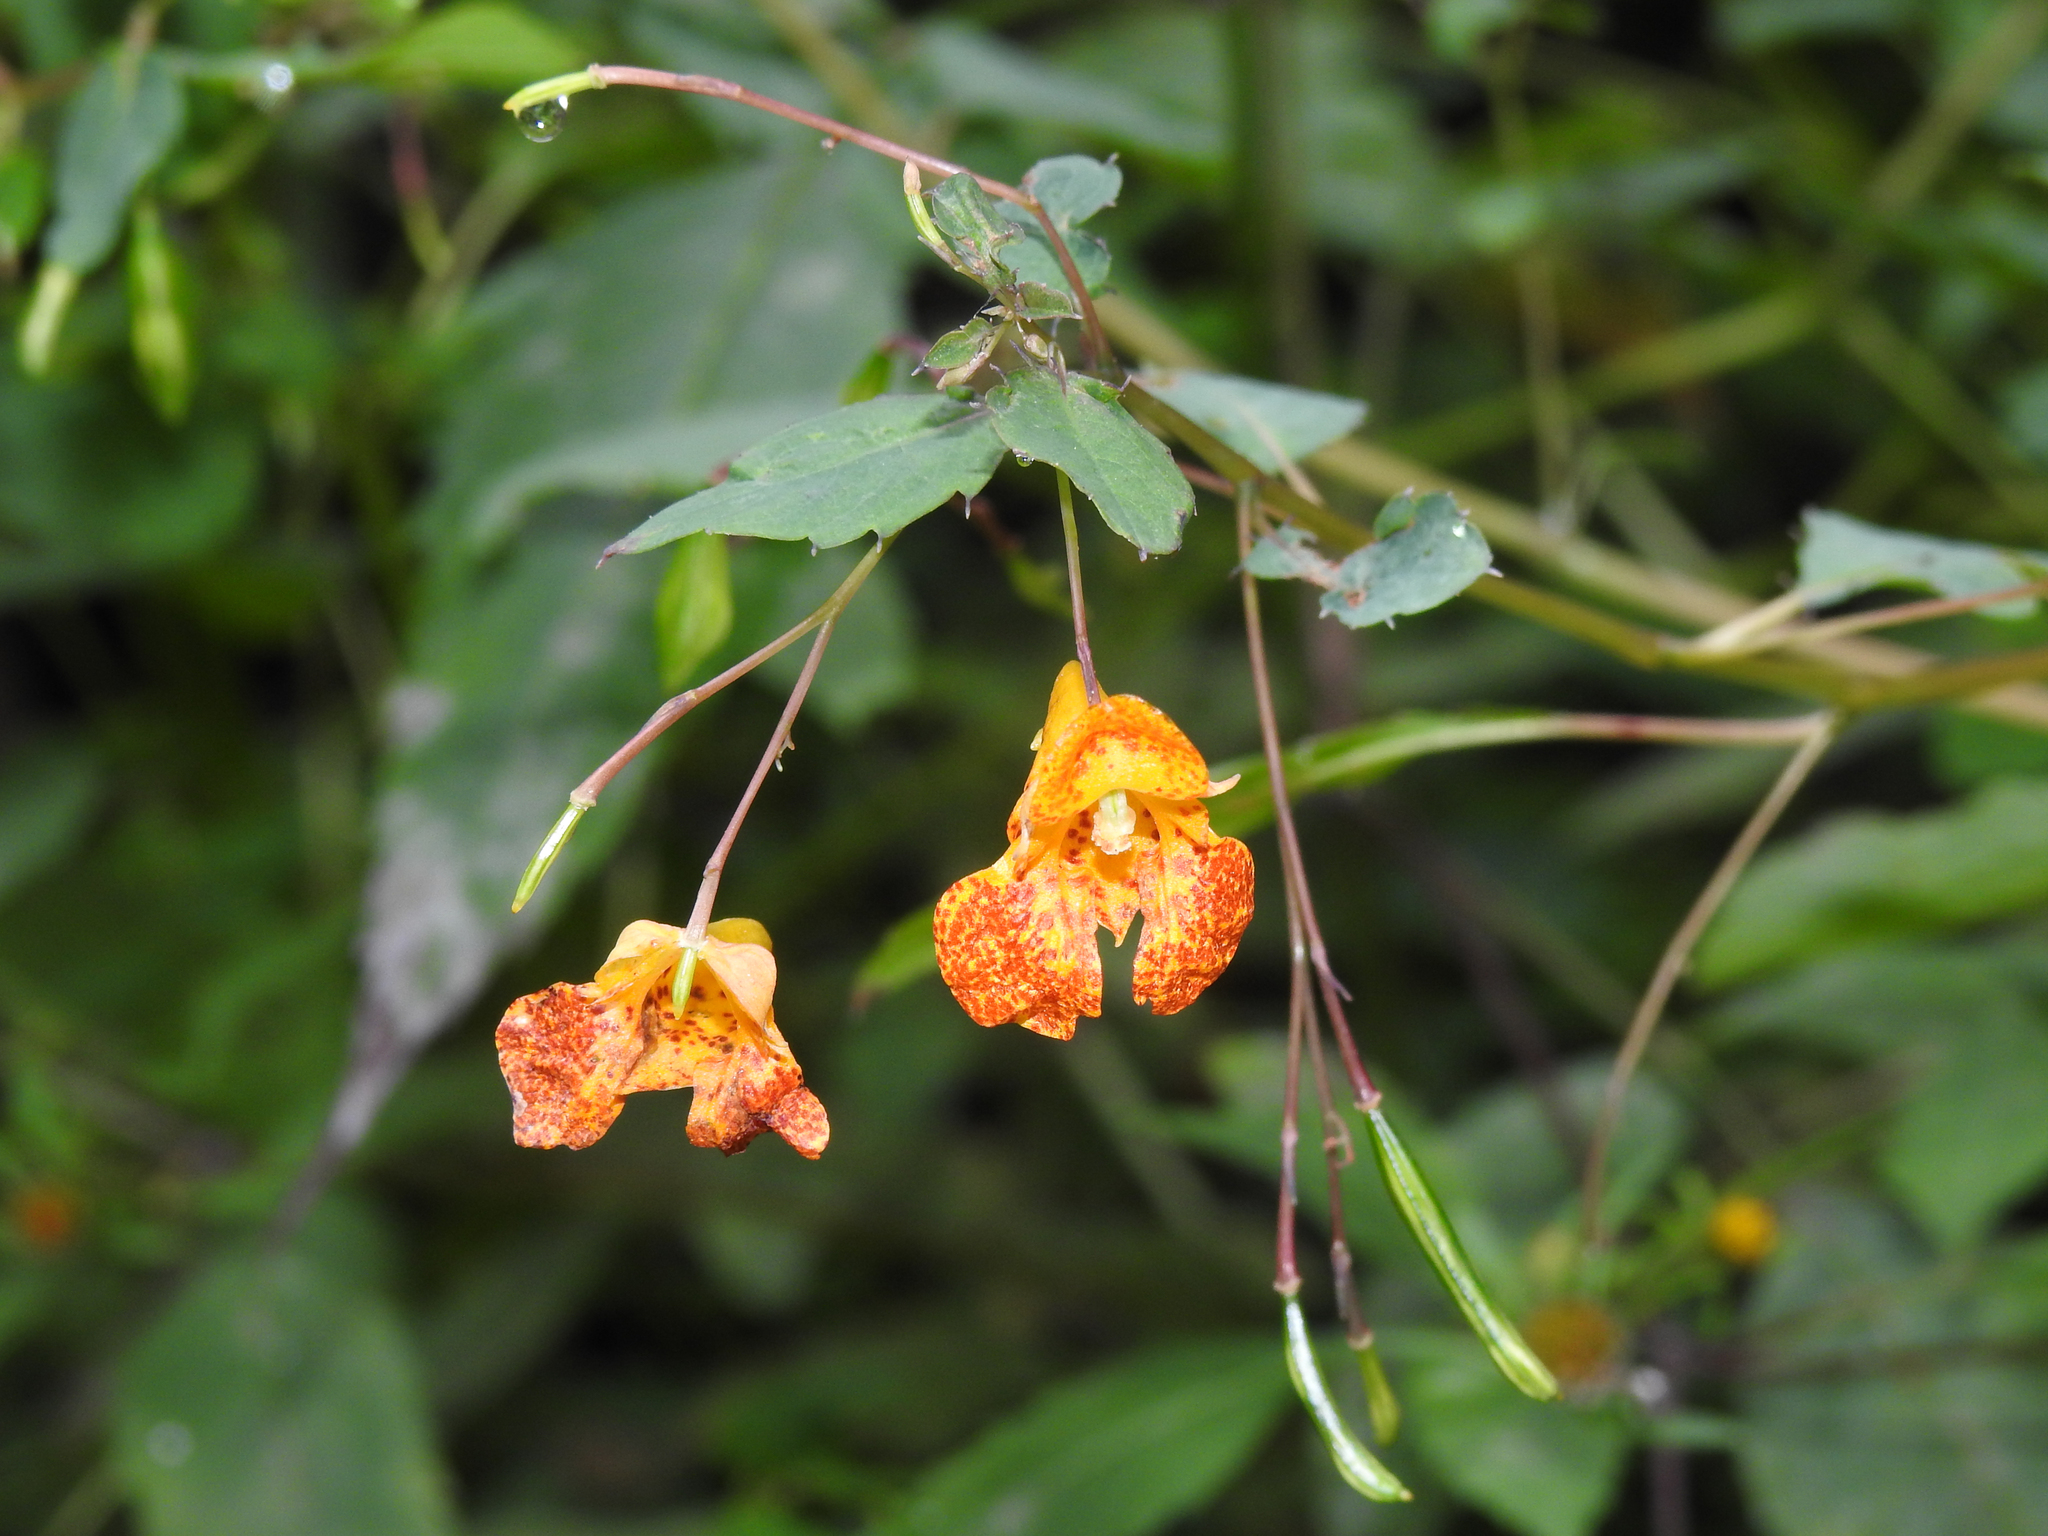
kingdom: Plantae
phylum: Tracheophyta
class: Magnoliopsida
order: Ericales
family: Balsaminaceae
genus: Impatiens
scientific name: Impatiens capensis
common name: Orange balsam
